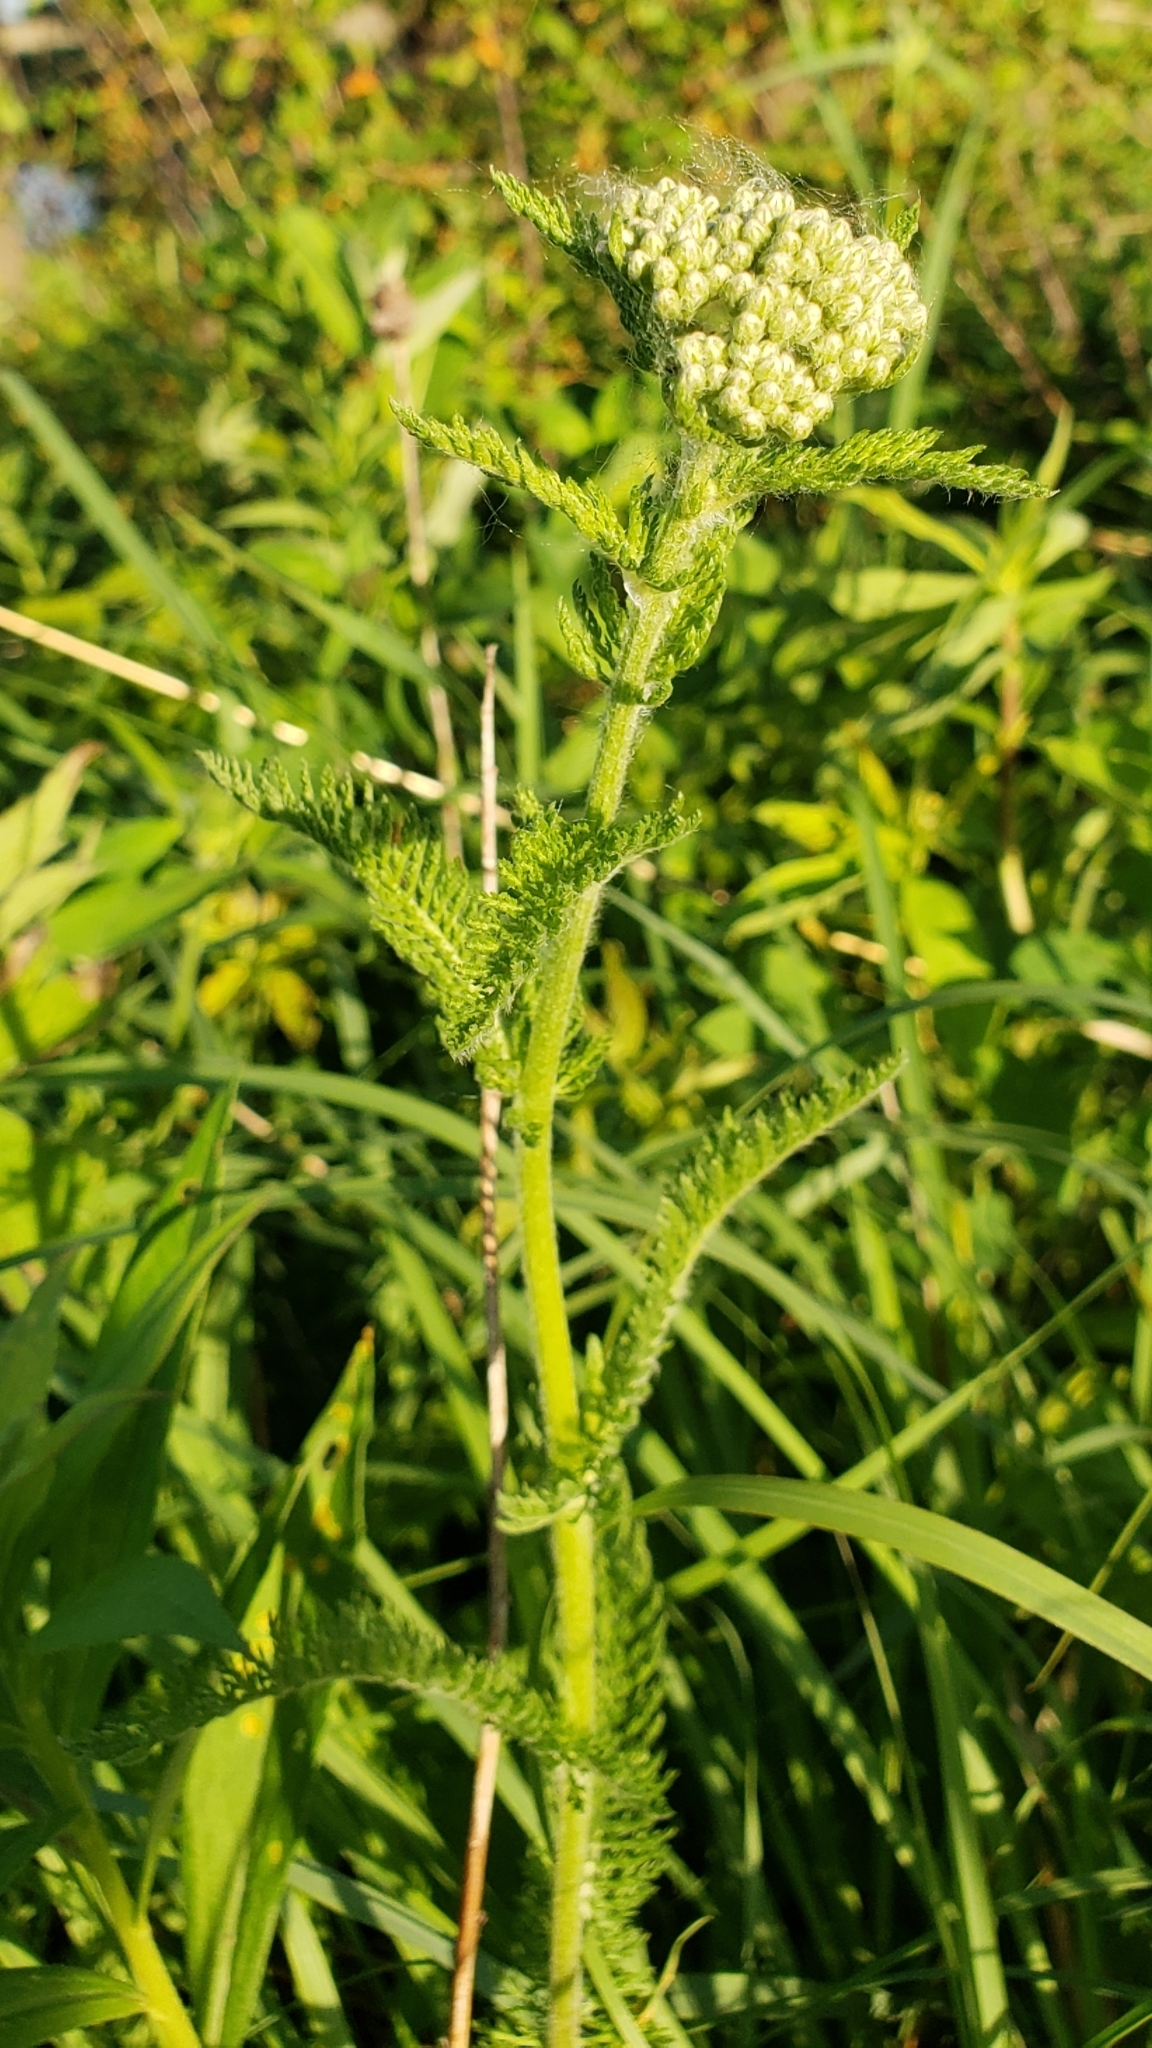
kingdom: Plantae
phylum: Tracheophyta
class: Magnoliopsida
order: Asterales
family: Asteraceae
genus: Achillea
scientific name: Achillea millefolium
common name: Yarrow
